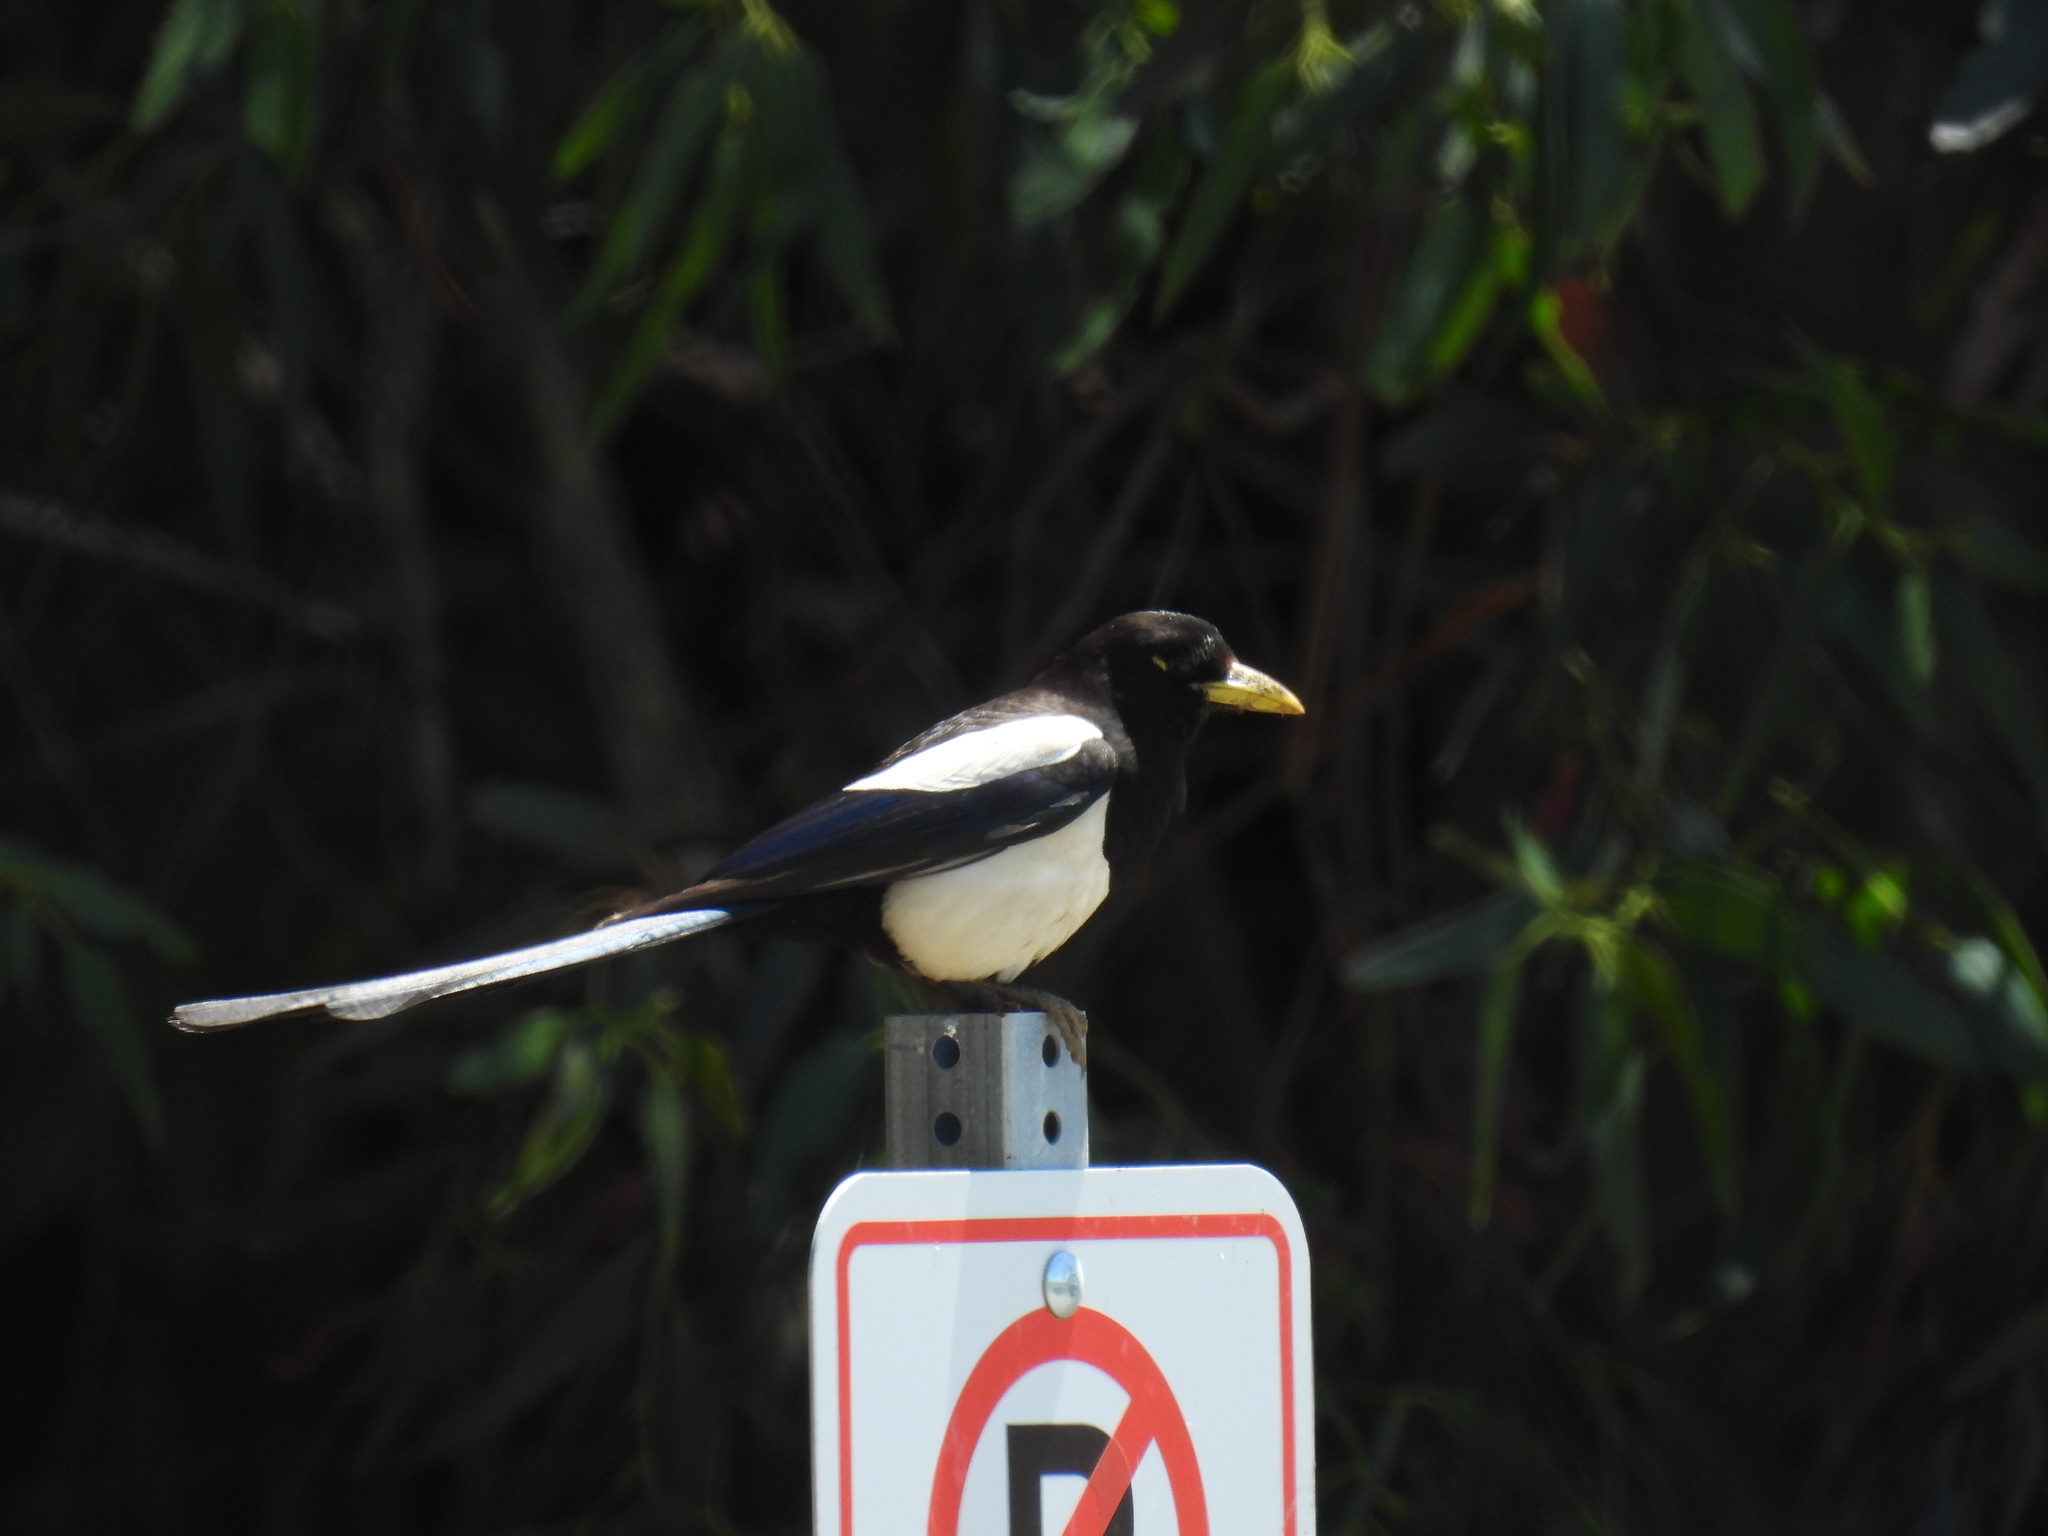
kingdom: Animalia
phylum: Chordata
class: Aves
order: Passeriformes
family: Corvidae
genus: Pica
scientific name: Pica nuttalli
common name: Yellow-billed magpie
